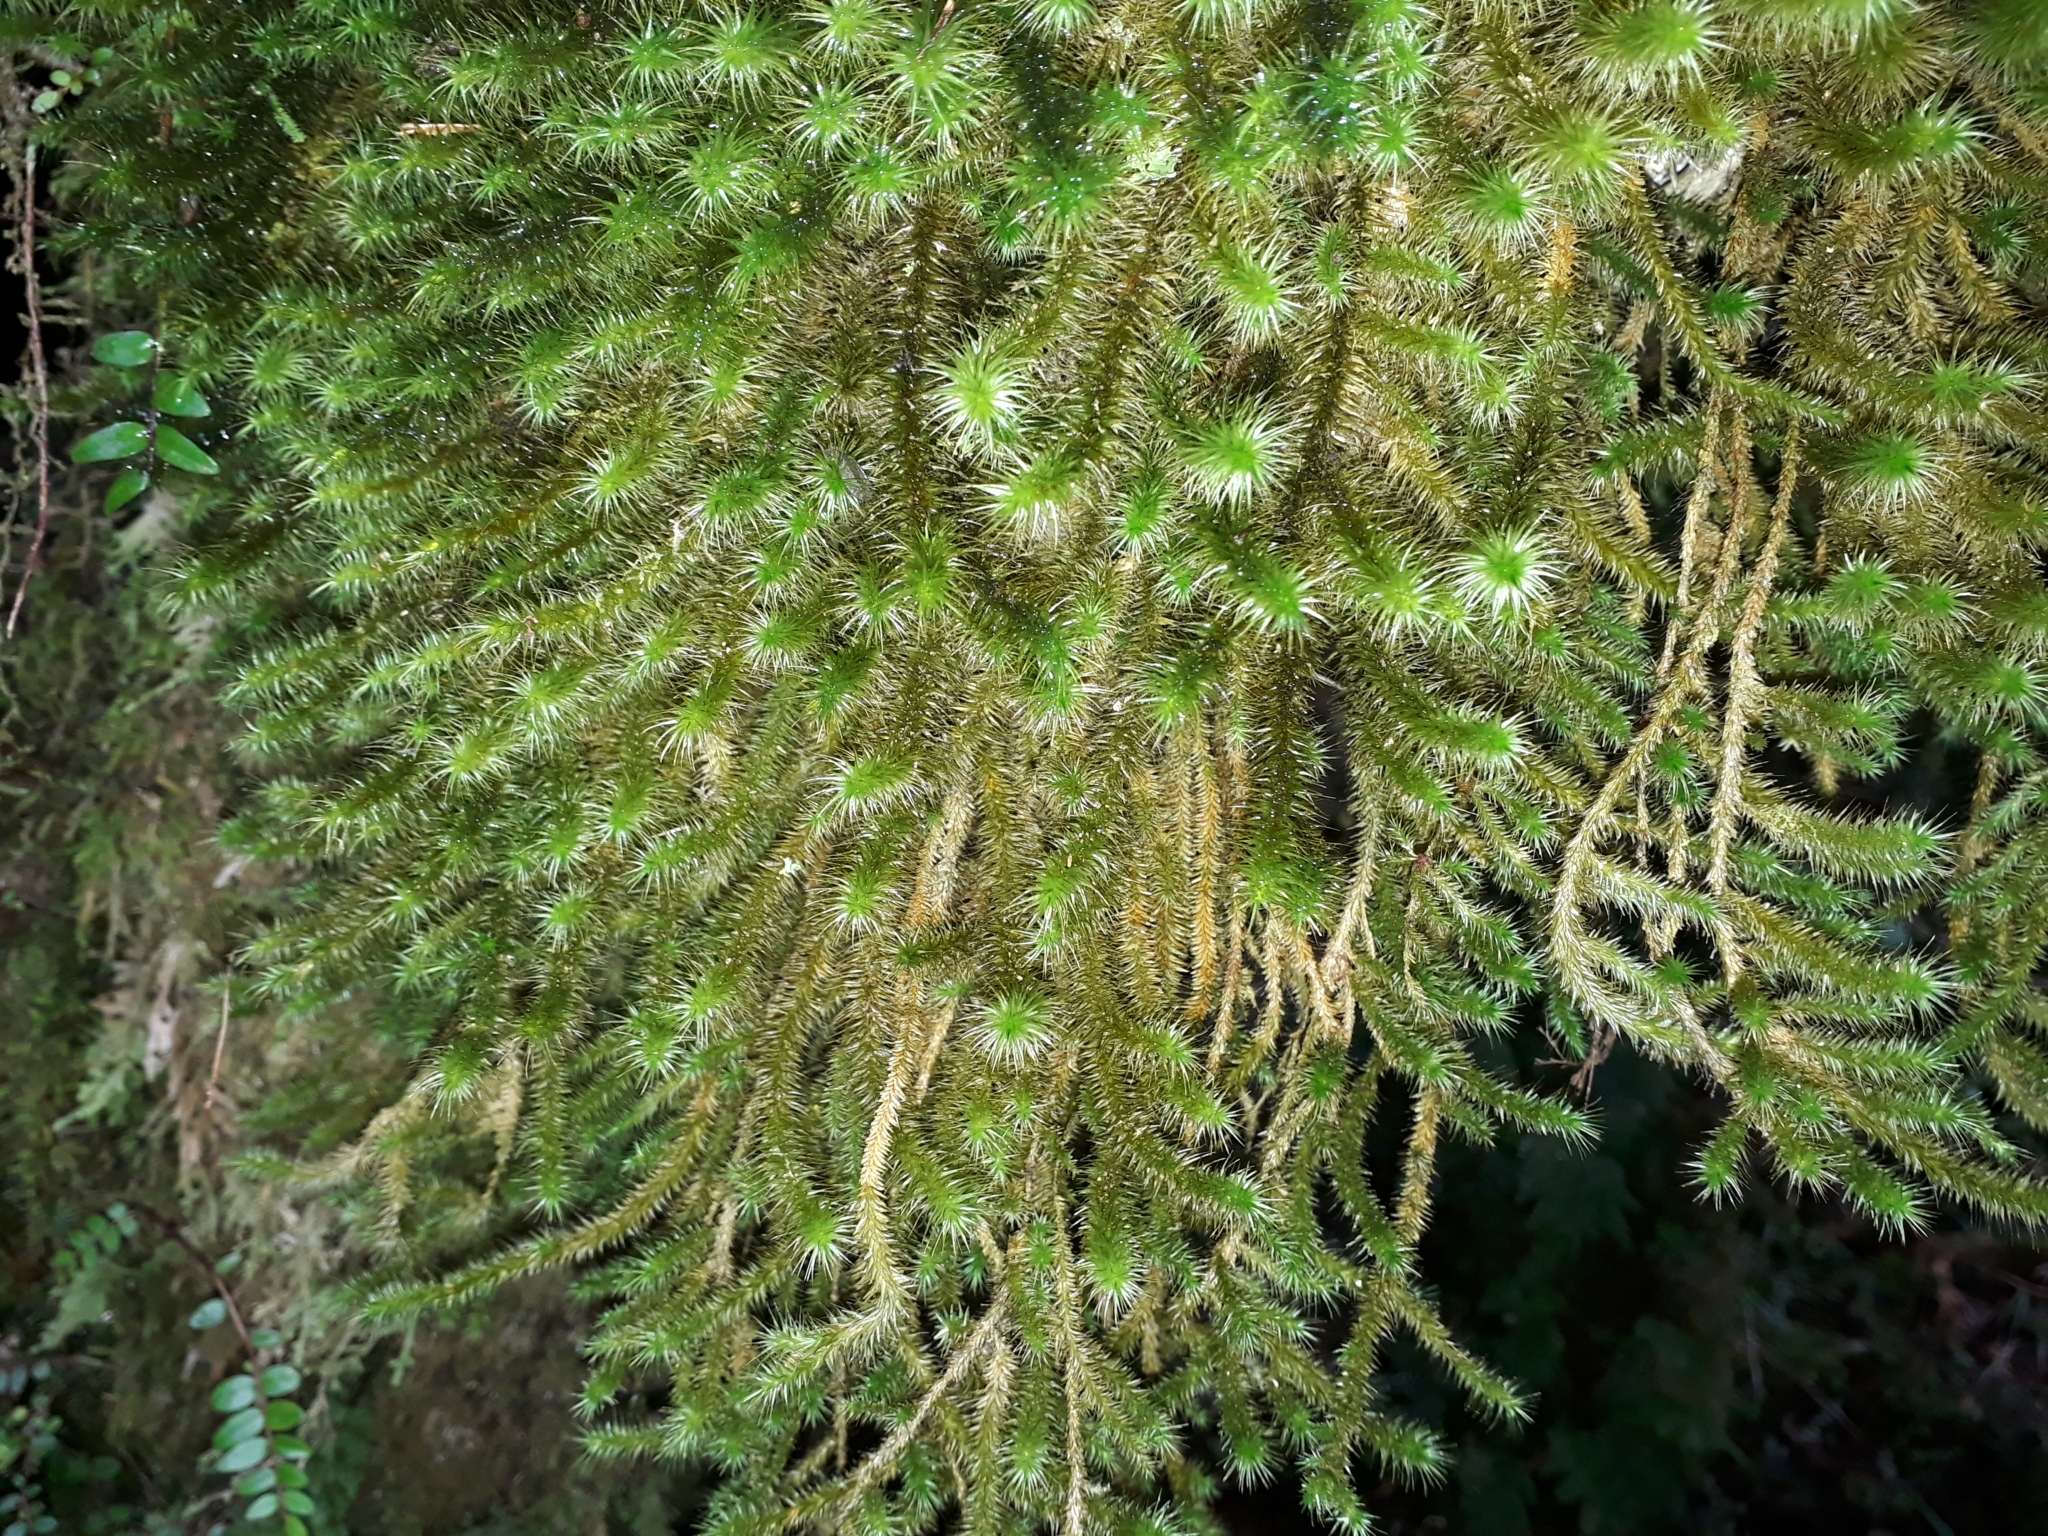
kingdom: Plantae
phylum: Bryophyta
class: Bryopsida
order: Hypnodendrales
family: Spiridentaceae
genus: Cyrtopus
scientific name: Cyrtopus setosus
